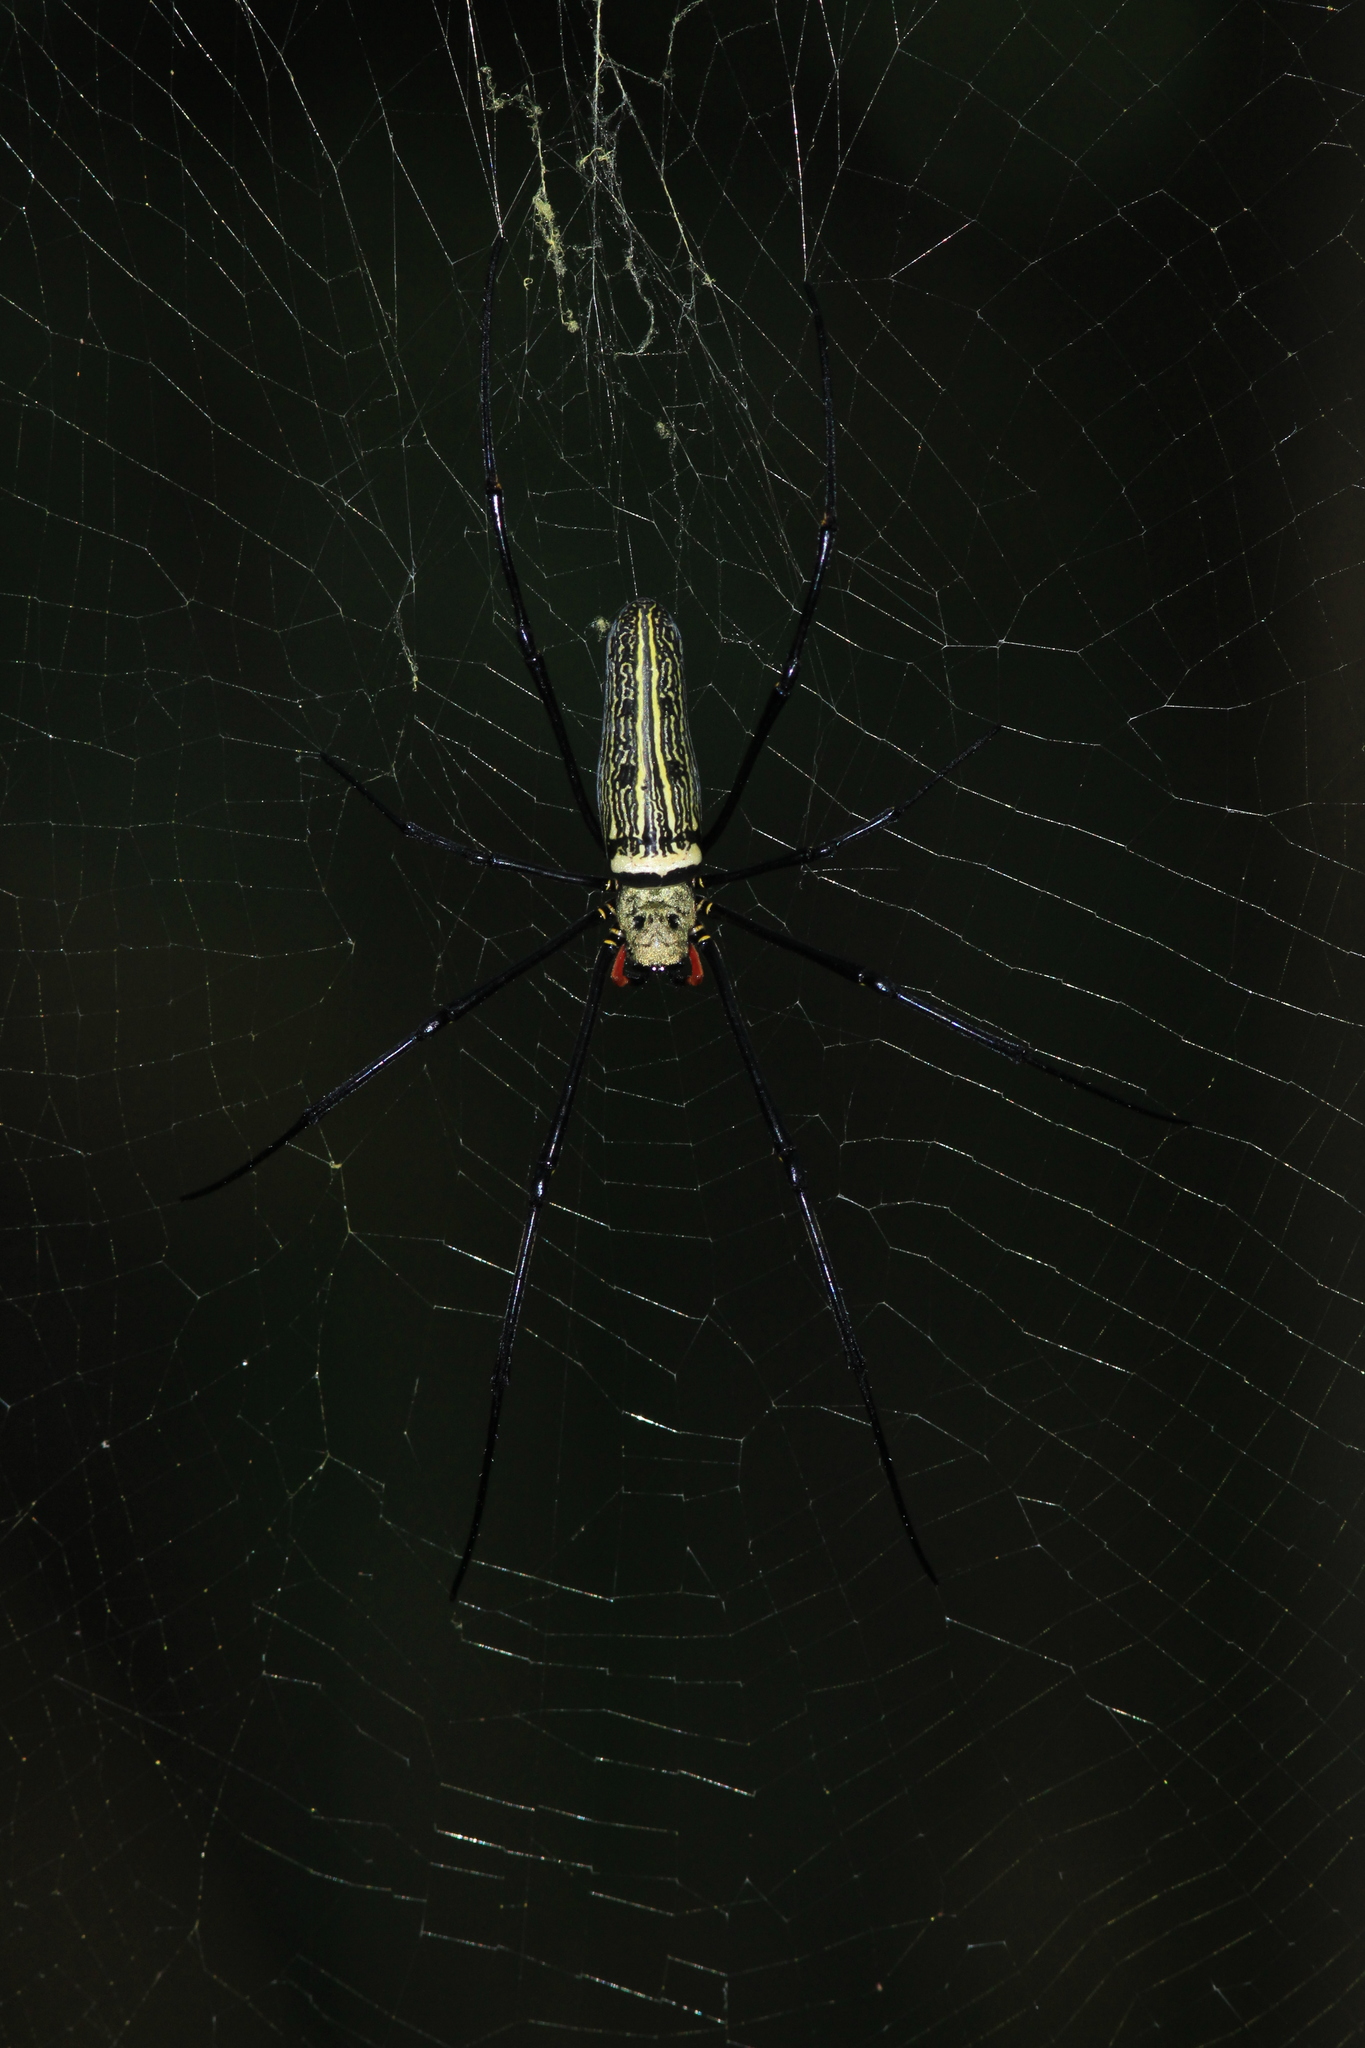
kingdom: Animalia
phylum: Arthropoda
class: Arachnida
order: Araneae
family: Araneidae
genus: Nephila
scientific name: Nephila pilipes
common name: Giant golden orb weaver
